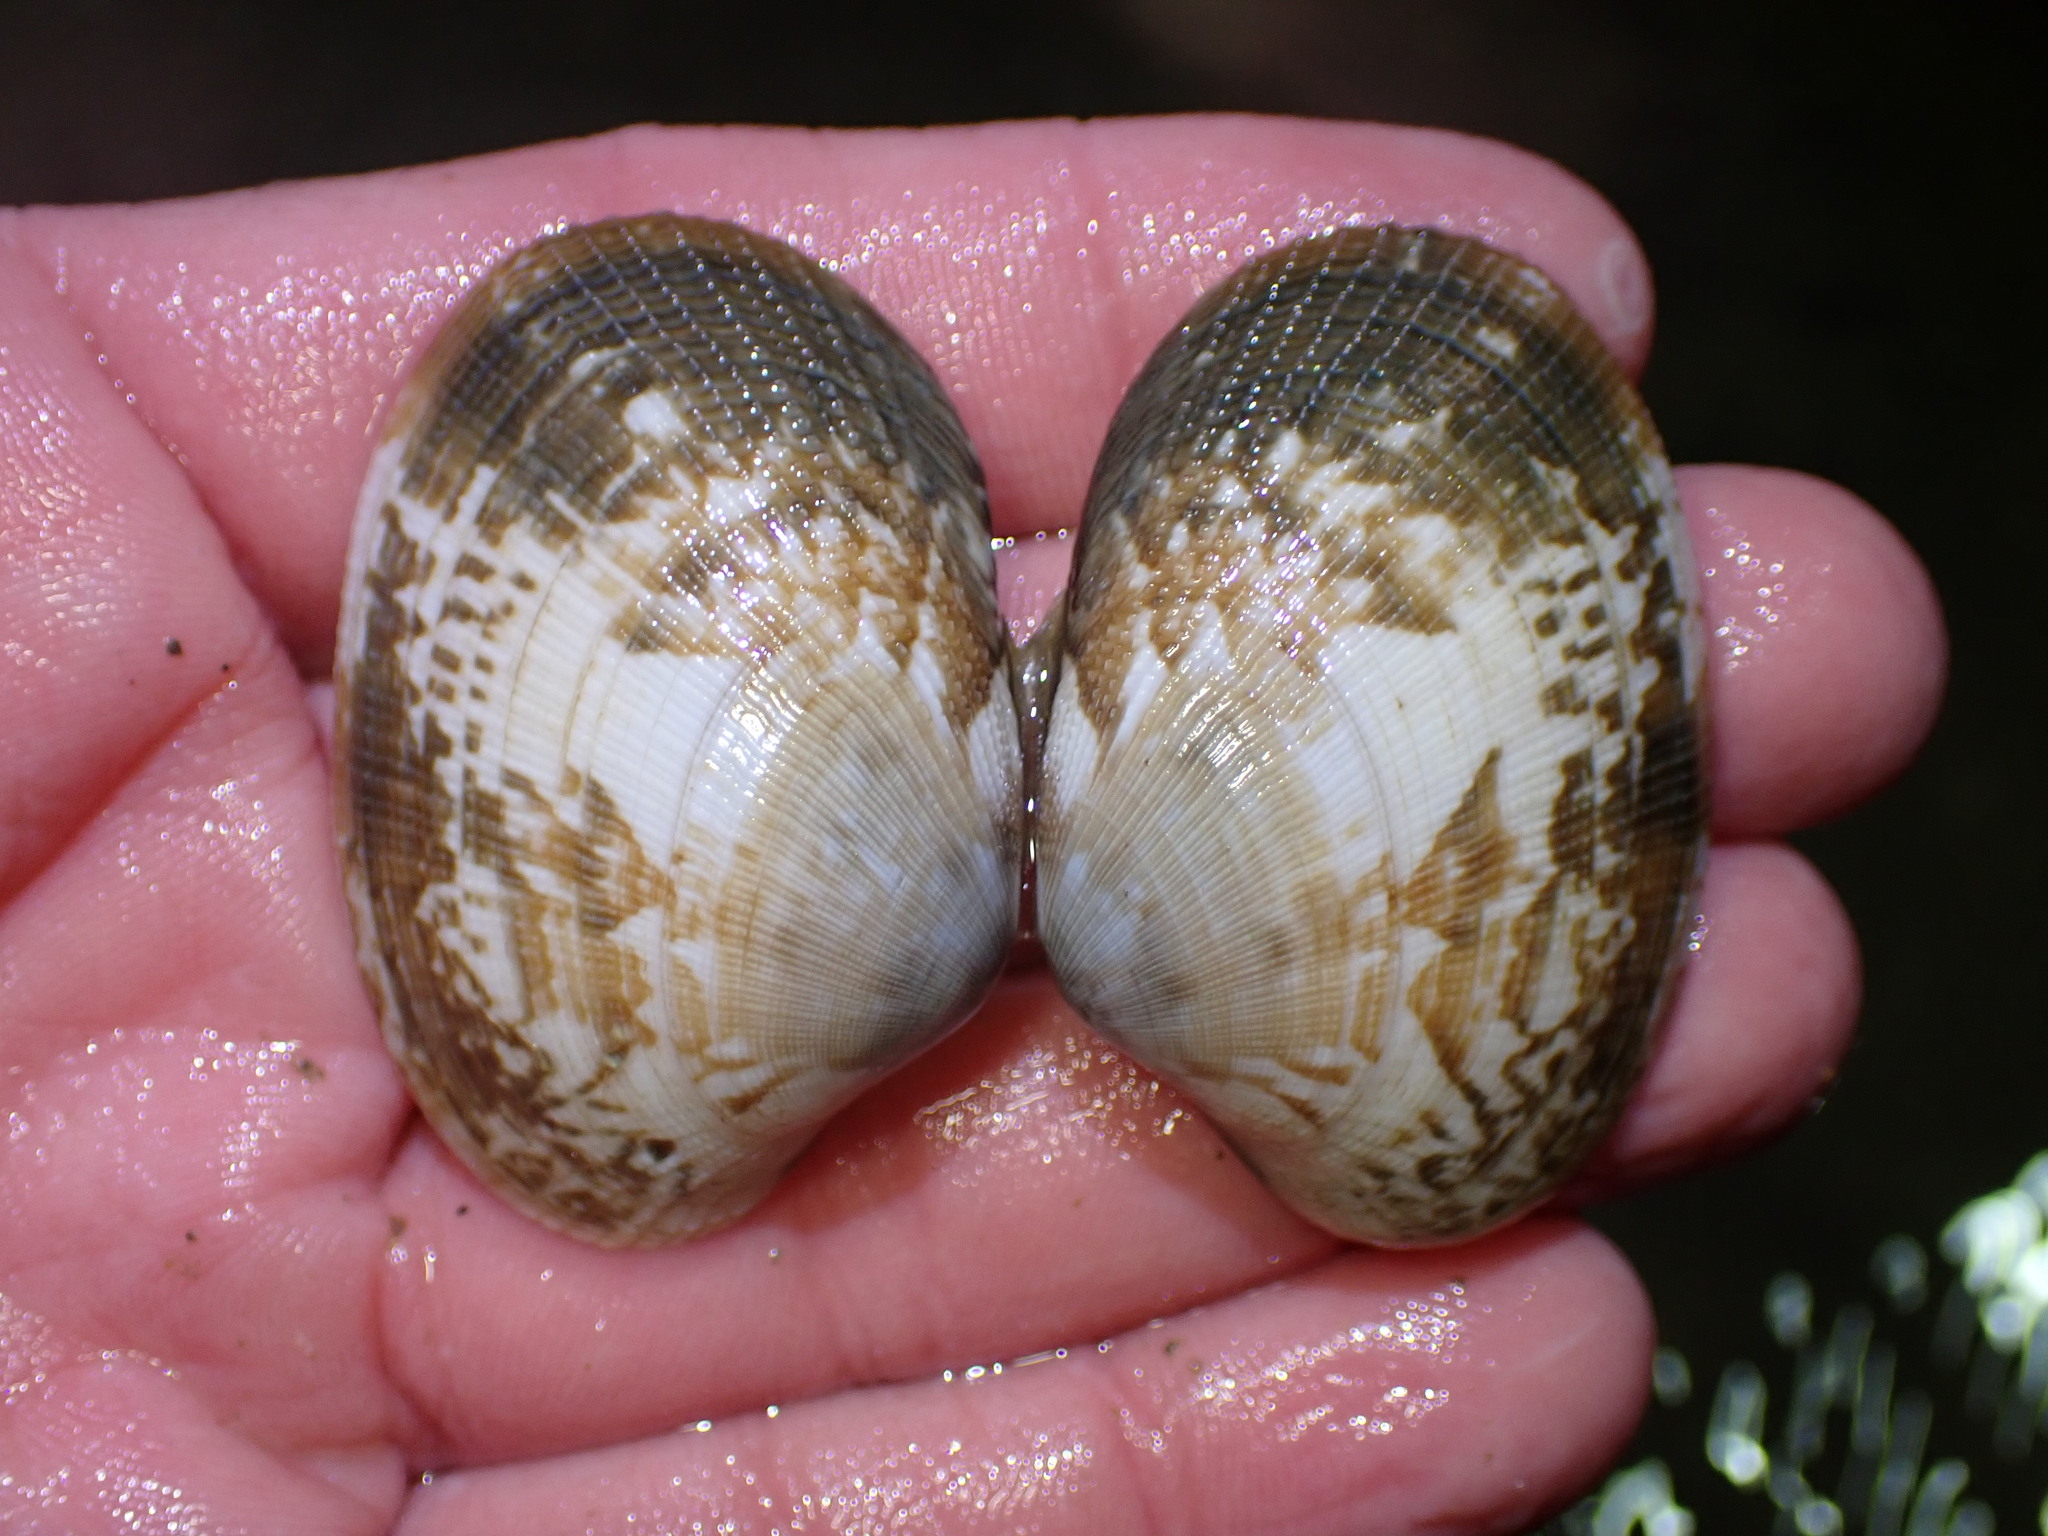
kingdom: Animalia
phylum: Mollusca
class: Bivalvia
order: Venerida
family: Veneridae
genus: Ruditapes
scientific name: Ruditapes philippinarum
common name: Manila clam
